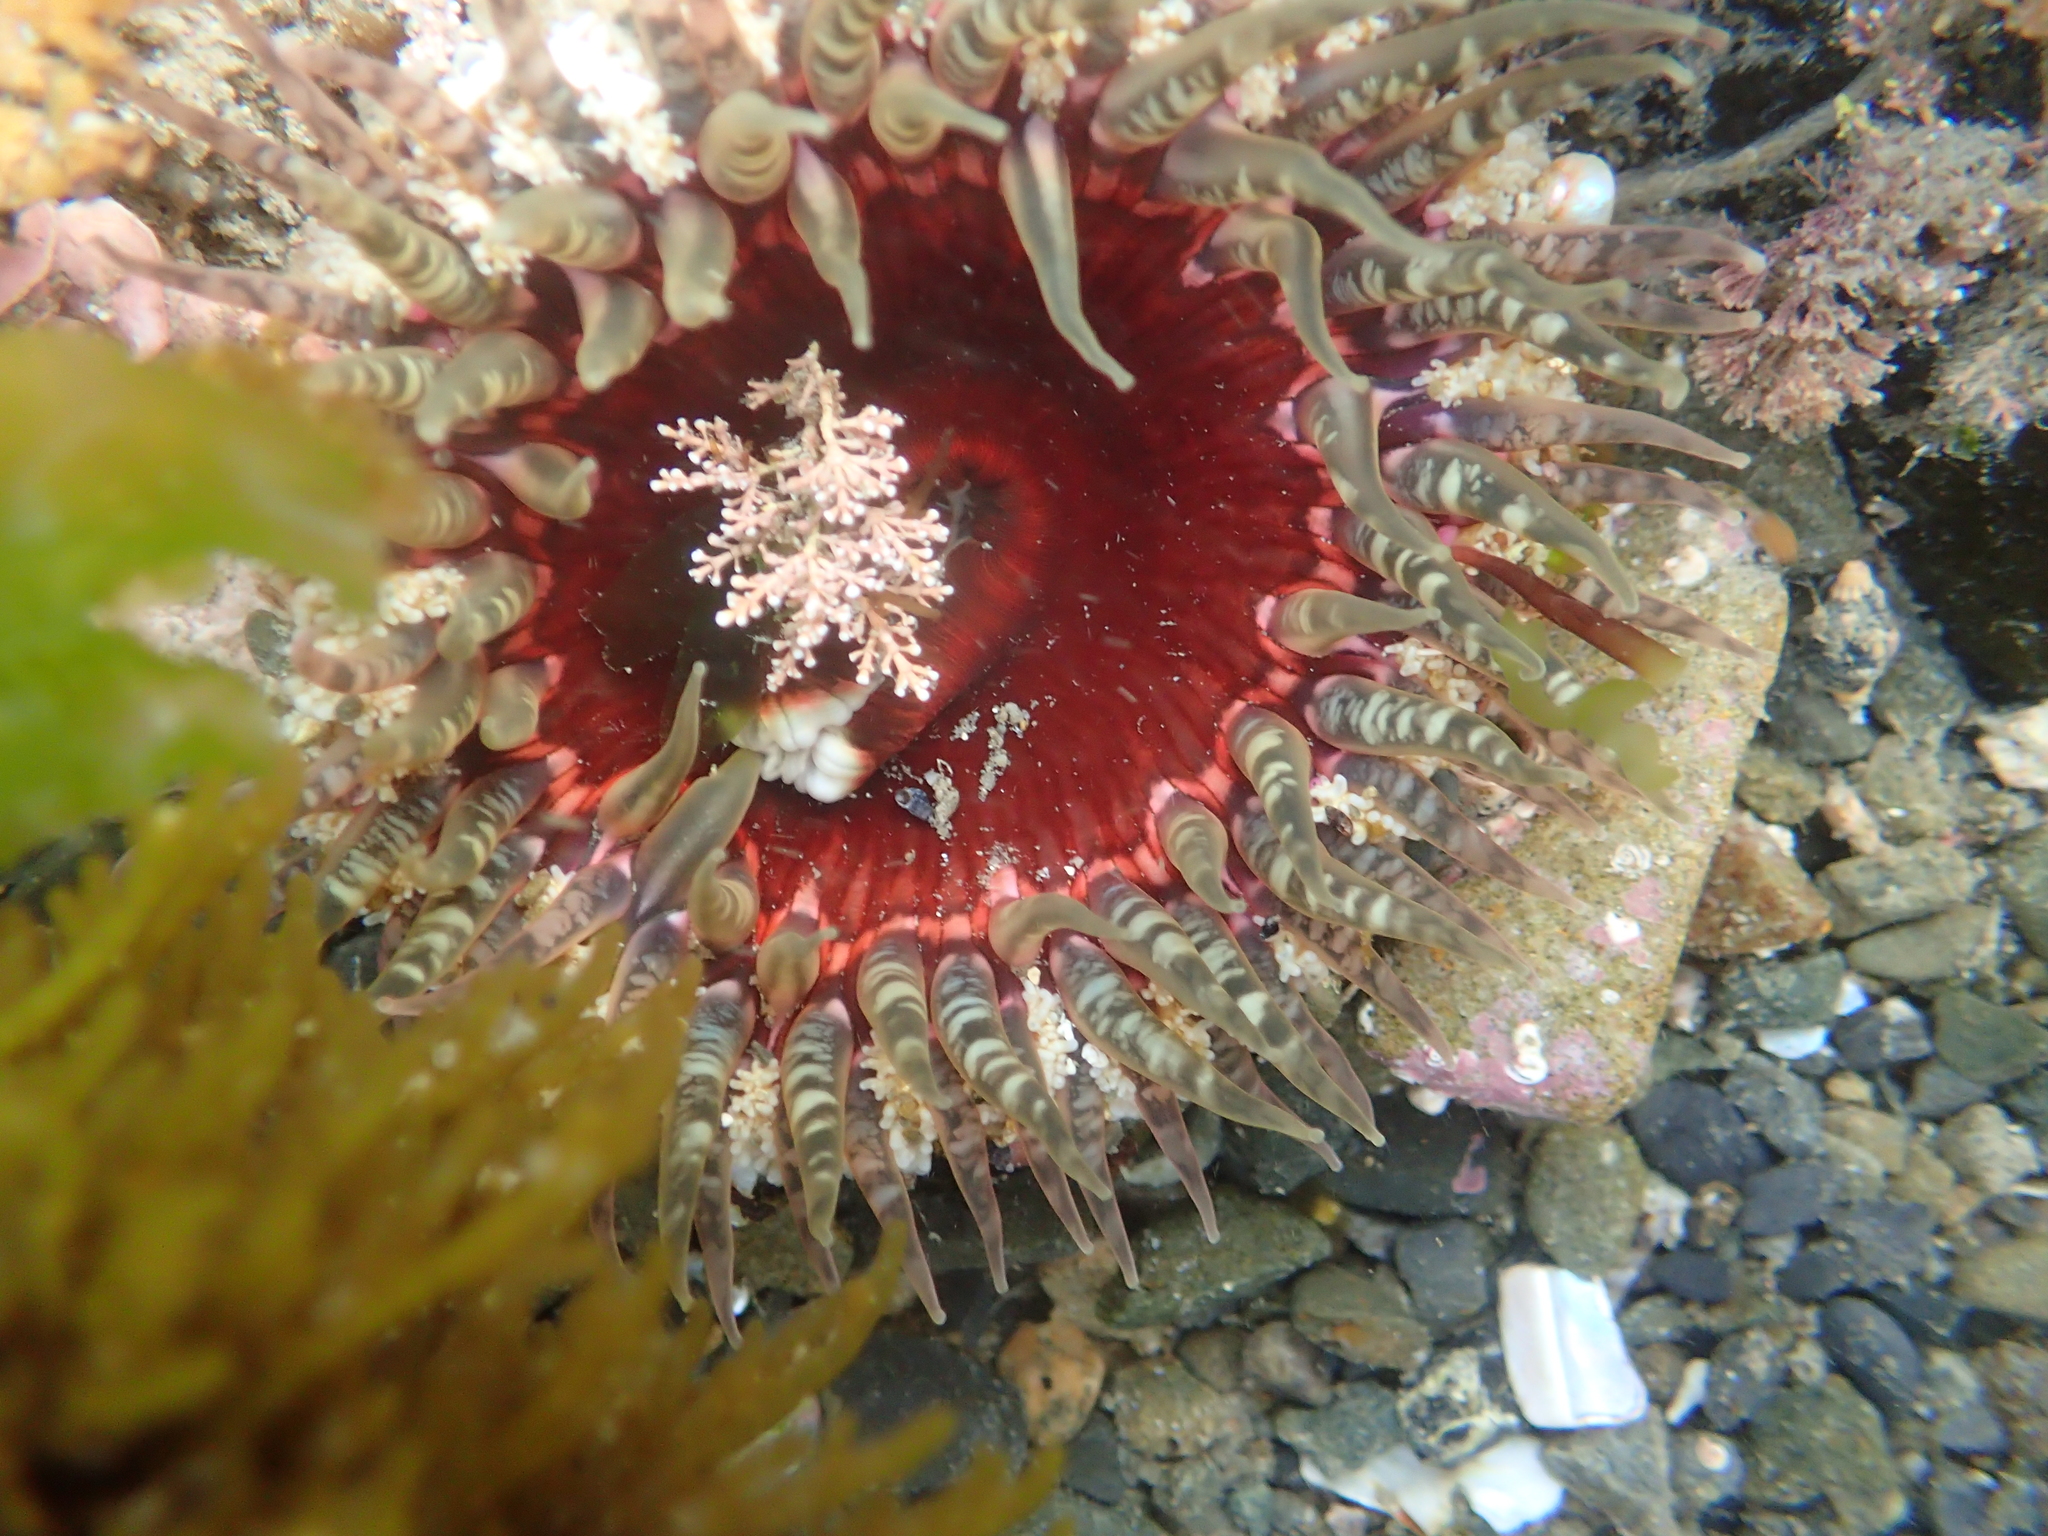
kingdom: Animalia
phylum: Cnidaria
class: Anthozoa
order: Actiniaria
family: Actiniidae
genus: Oulactis
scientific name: Oulactis muscosa
